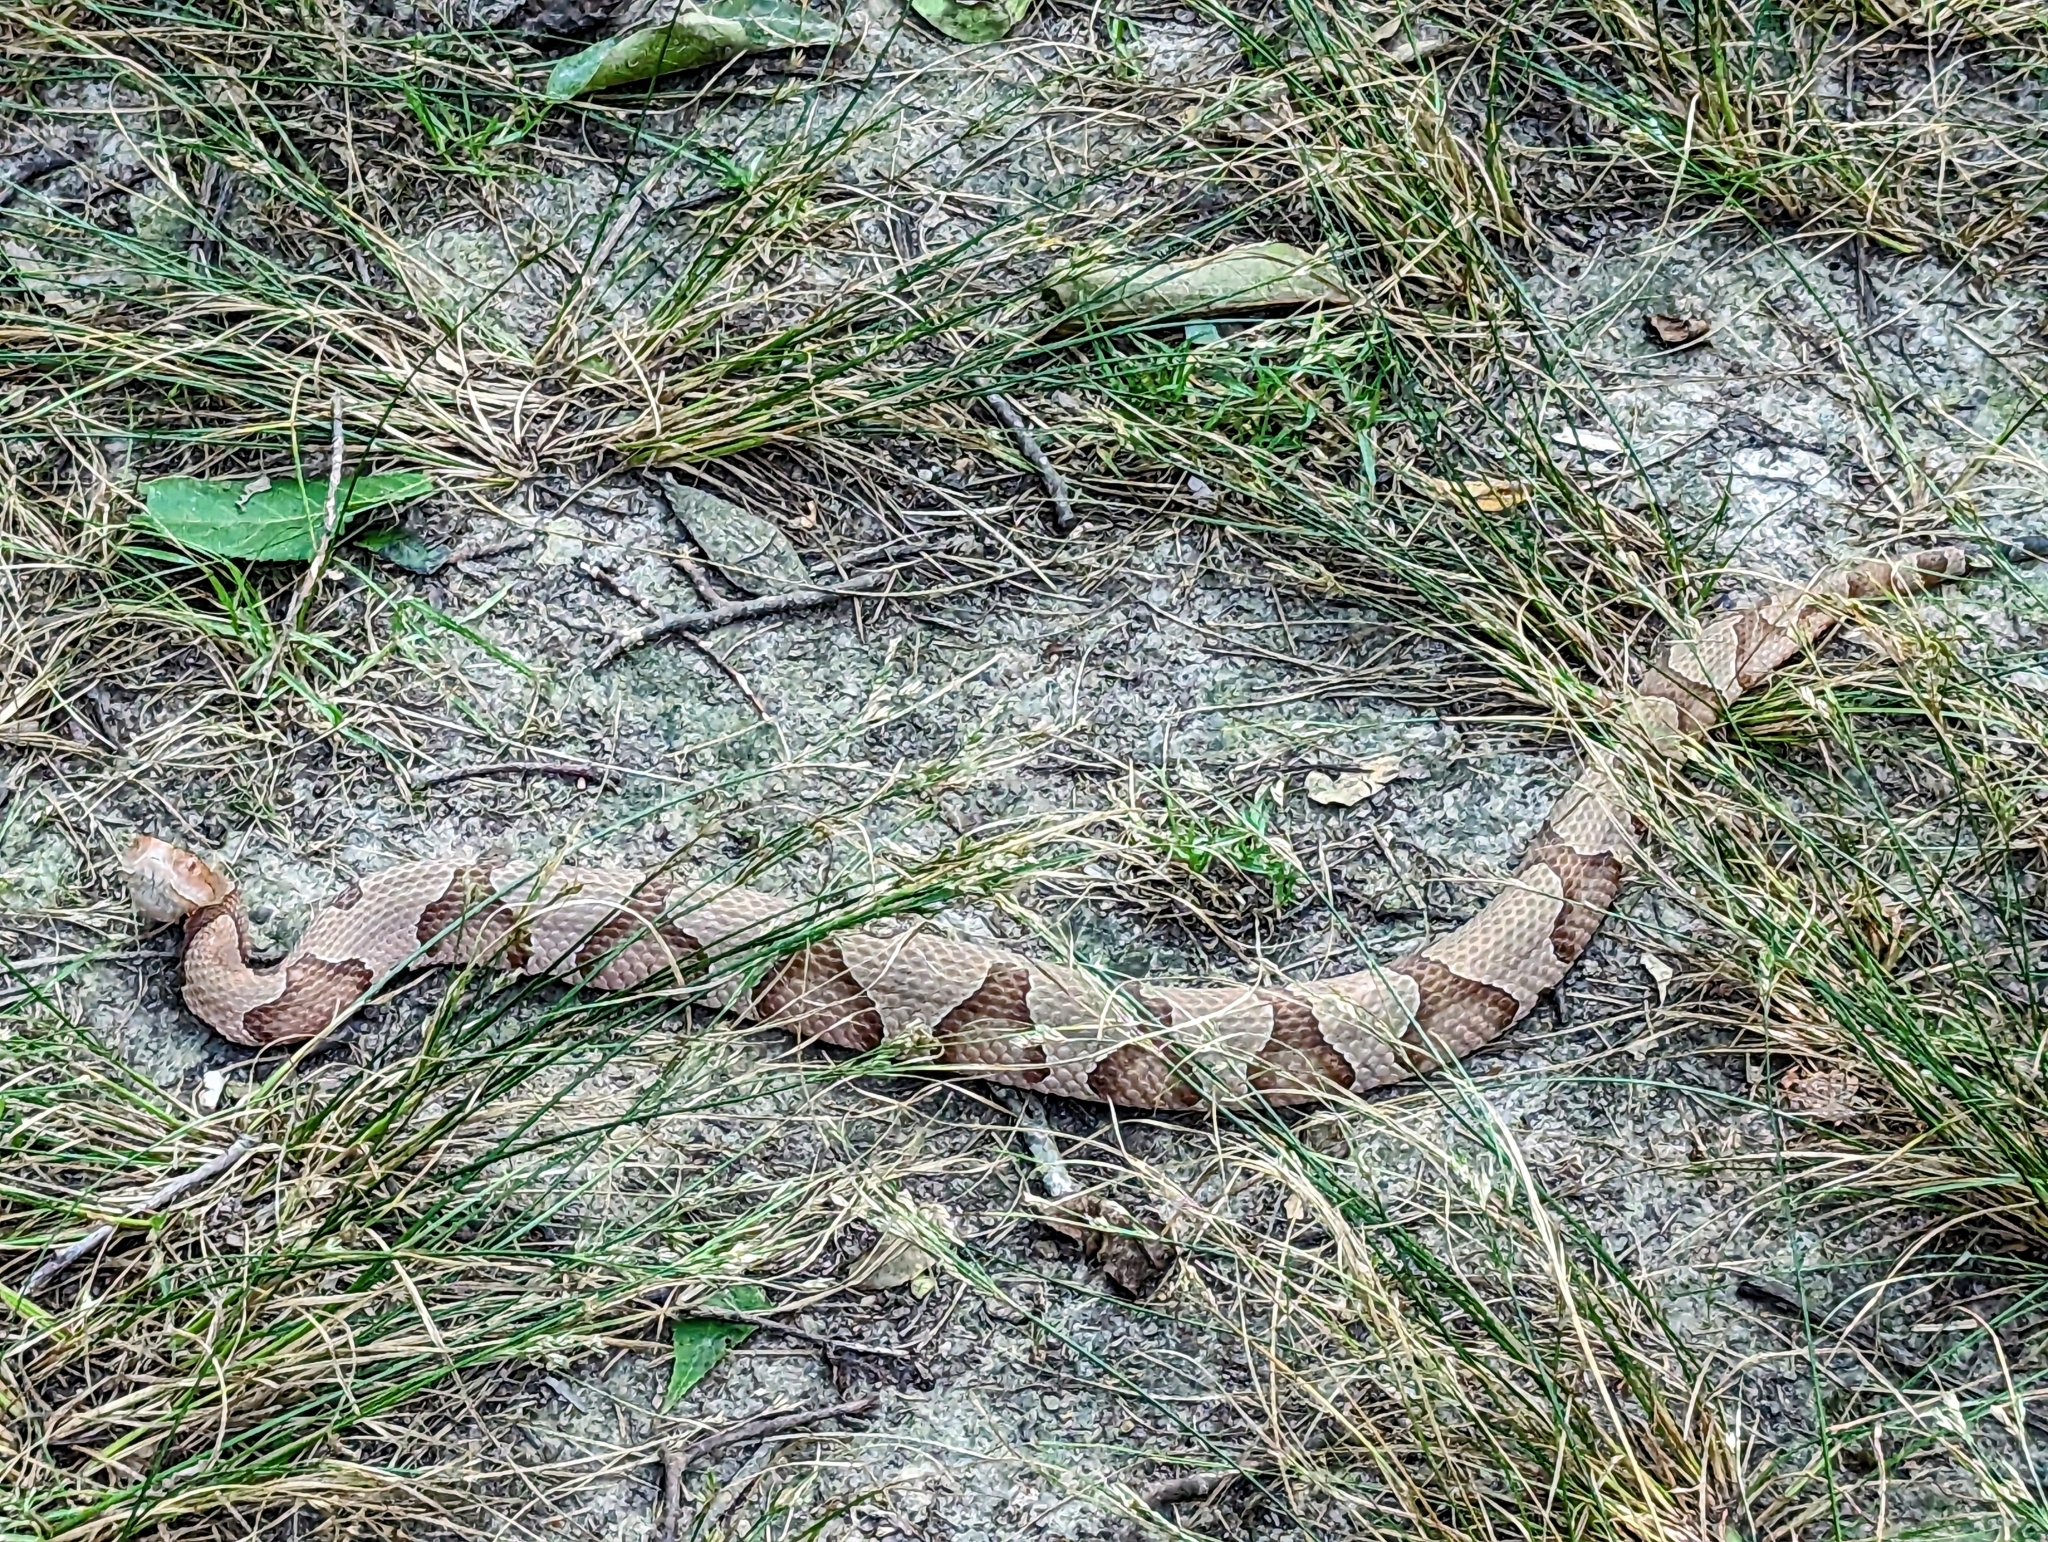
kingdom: Animalia
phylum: Chordata
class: Squamata
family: Viperidae
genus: Agkistrodon
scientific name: Agkistrodon contortrix
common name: Northern copperhead
